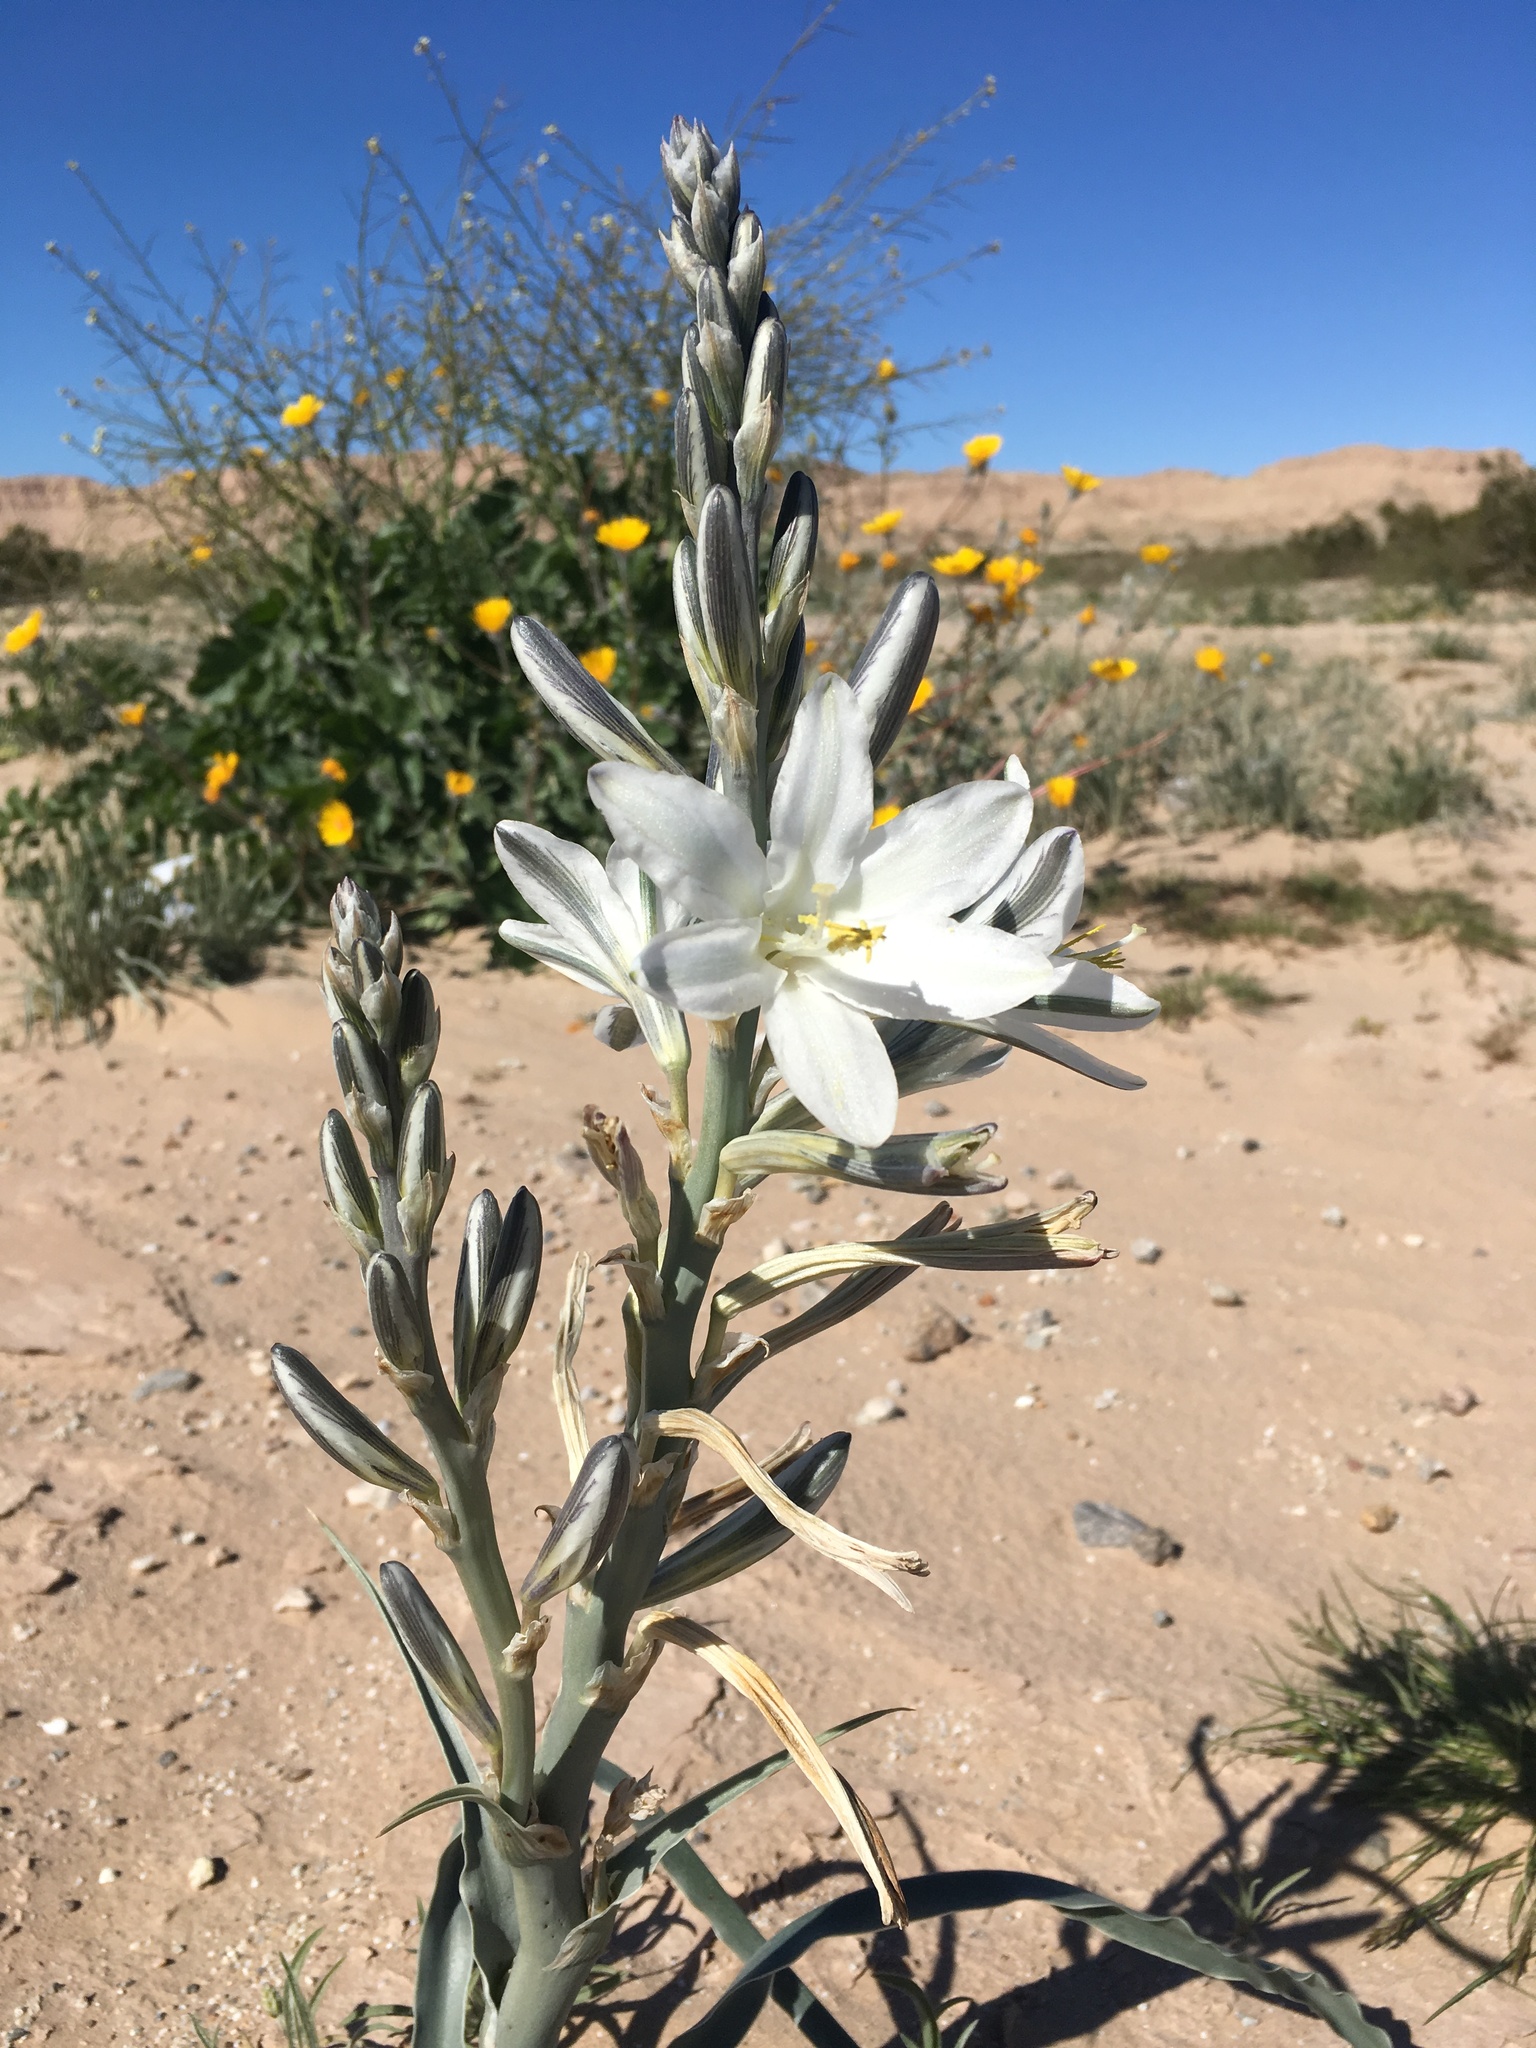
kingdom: Plantae
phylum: Tracheophyta
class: Liliopsida
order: Asparagales
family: Asparagaceae
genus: Hesperocallis
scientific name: Hesperocallis undulata
